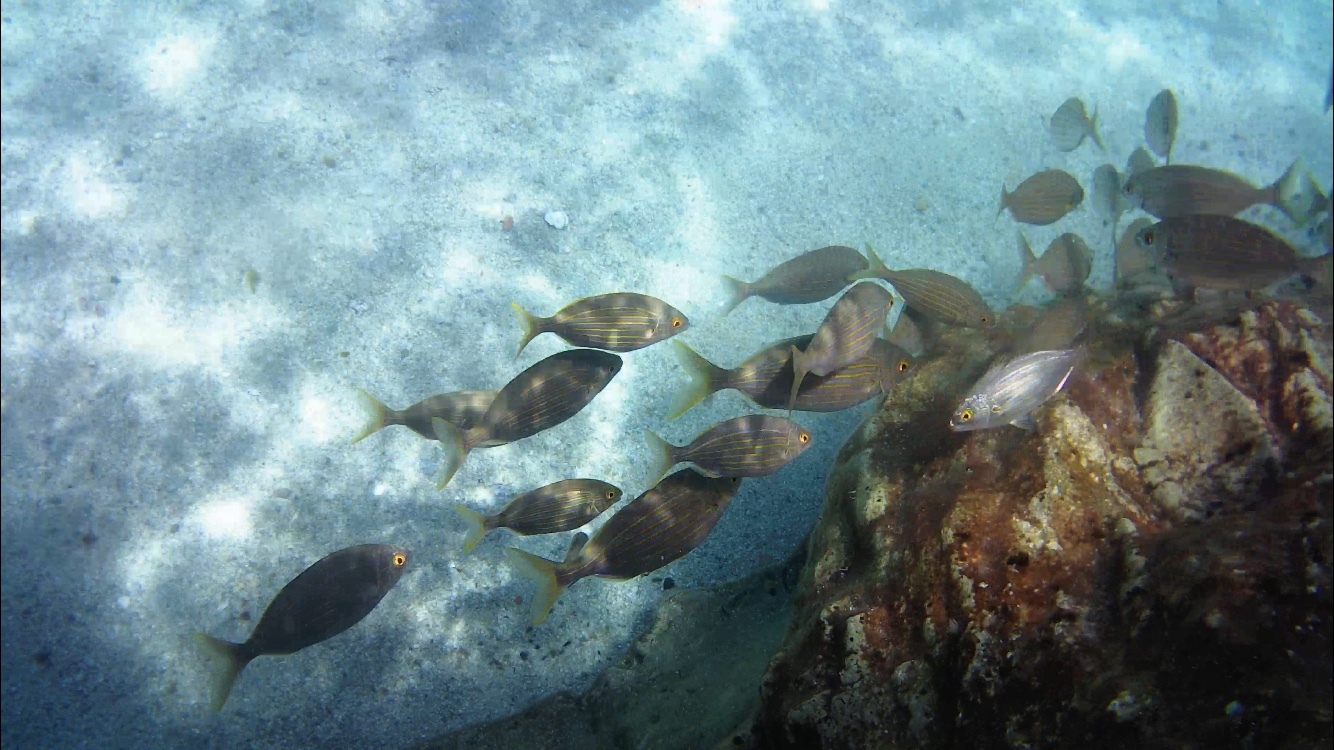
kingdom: Animalia
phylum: Chordata
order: Perciformes
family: Sparidae
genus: Sarpa
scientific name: Sarpa salpa
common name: Salema
